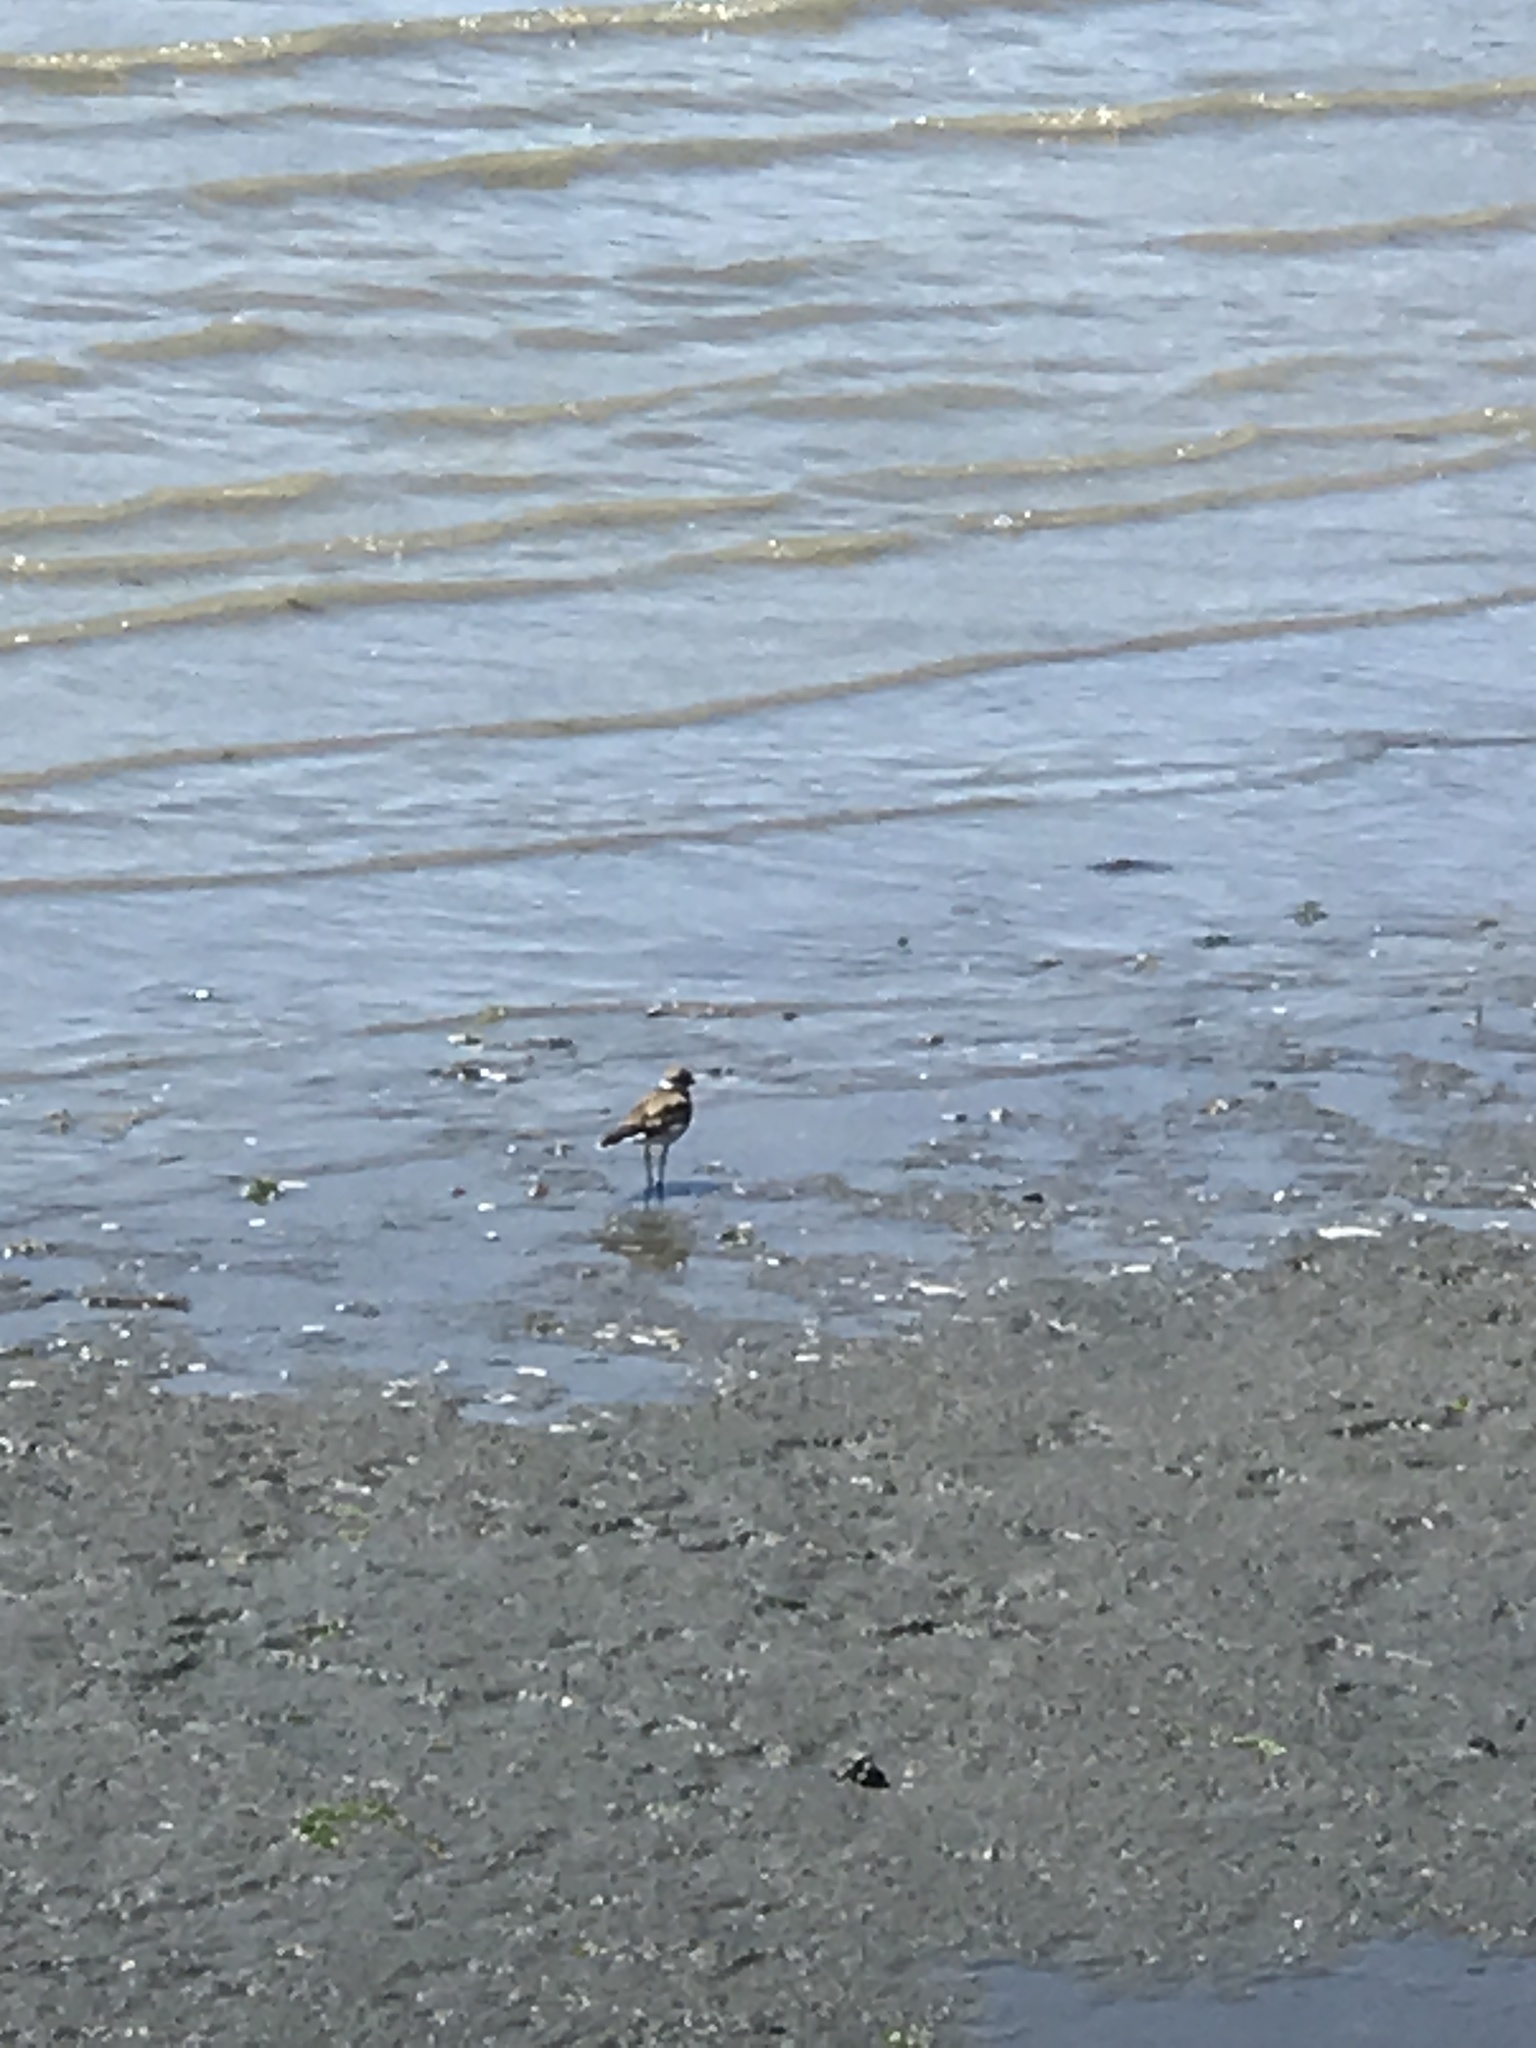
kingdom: Animalia
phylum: Chordata
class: Aves
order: Charadriiformes
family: Charadriidae
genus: Charadrius
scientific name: Charadrius vociferus
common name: Killdeer
